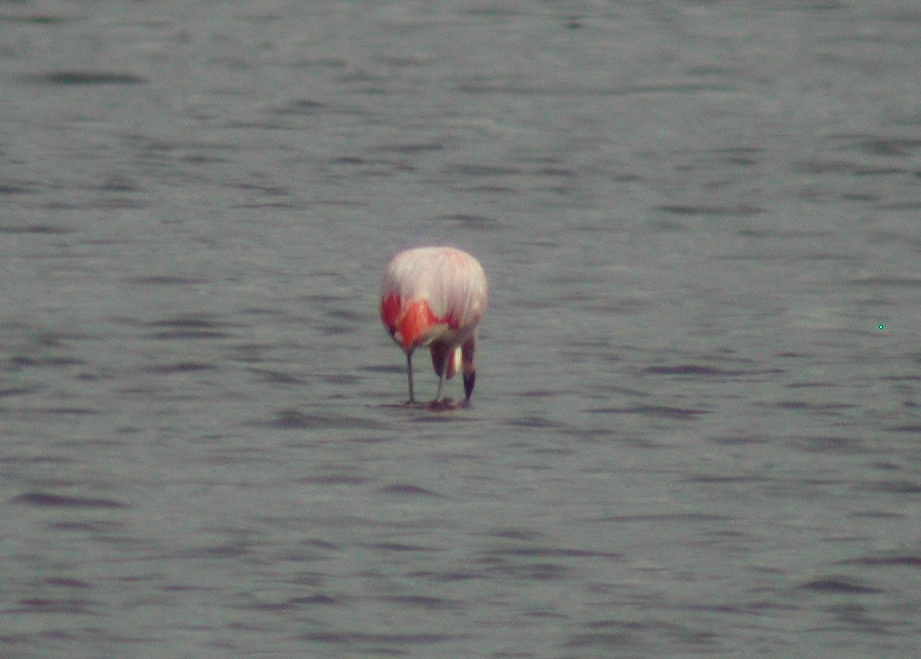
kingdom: Animalia
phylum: Chordata
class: Aves
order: Phoenicopteriformes
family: Phoenicopteridae
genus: Phoenicopterus
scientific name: Phoenicopterus chilensis
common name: Chilean flamingo
